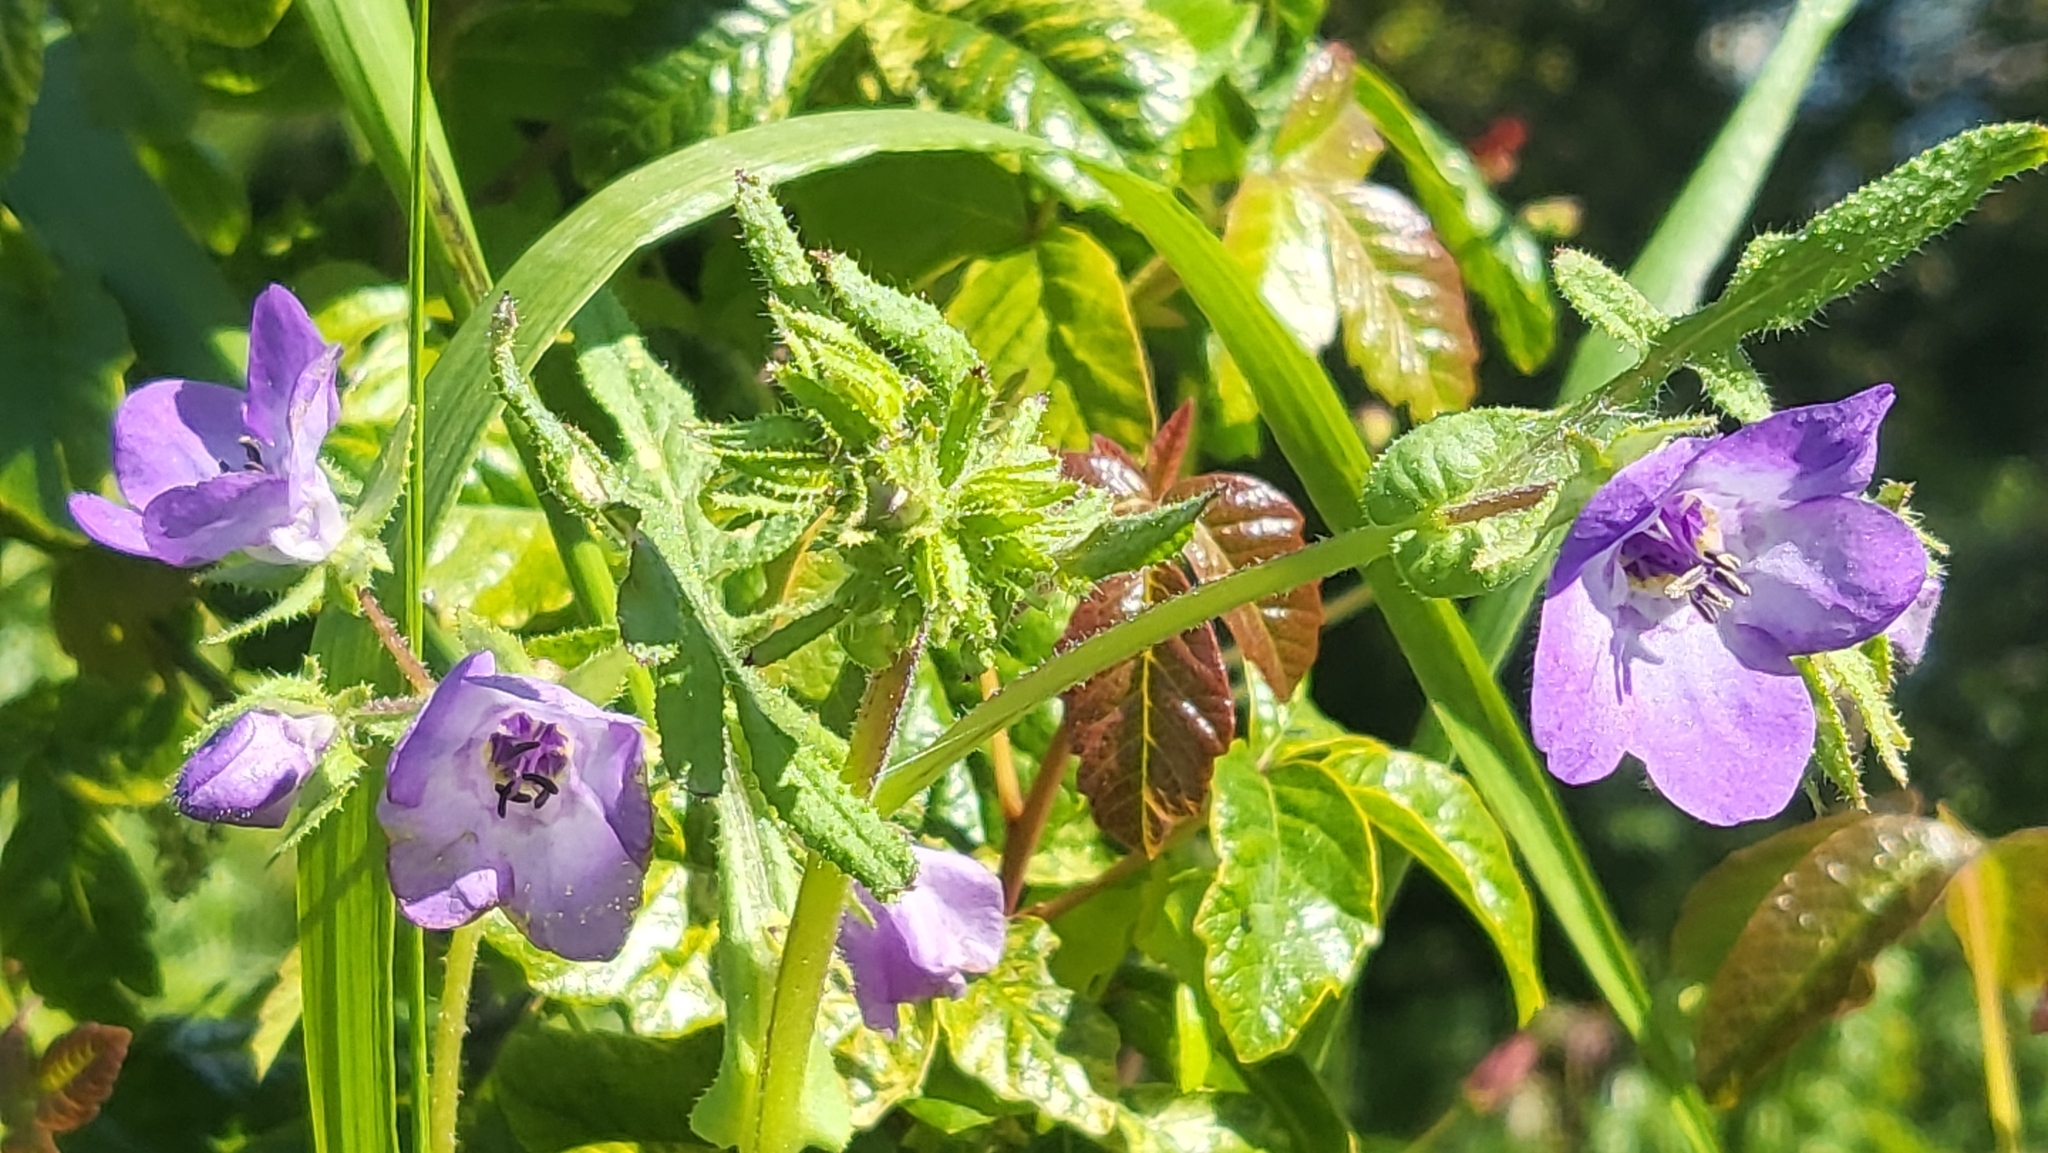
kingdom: Plantae
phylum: Tracheophyta
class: Magnoliopsida
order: Boraginales
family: Hydrophyllaceae
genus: Pholistoma
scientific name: Pholistoma auritum
